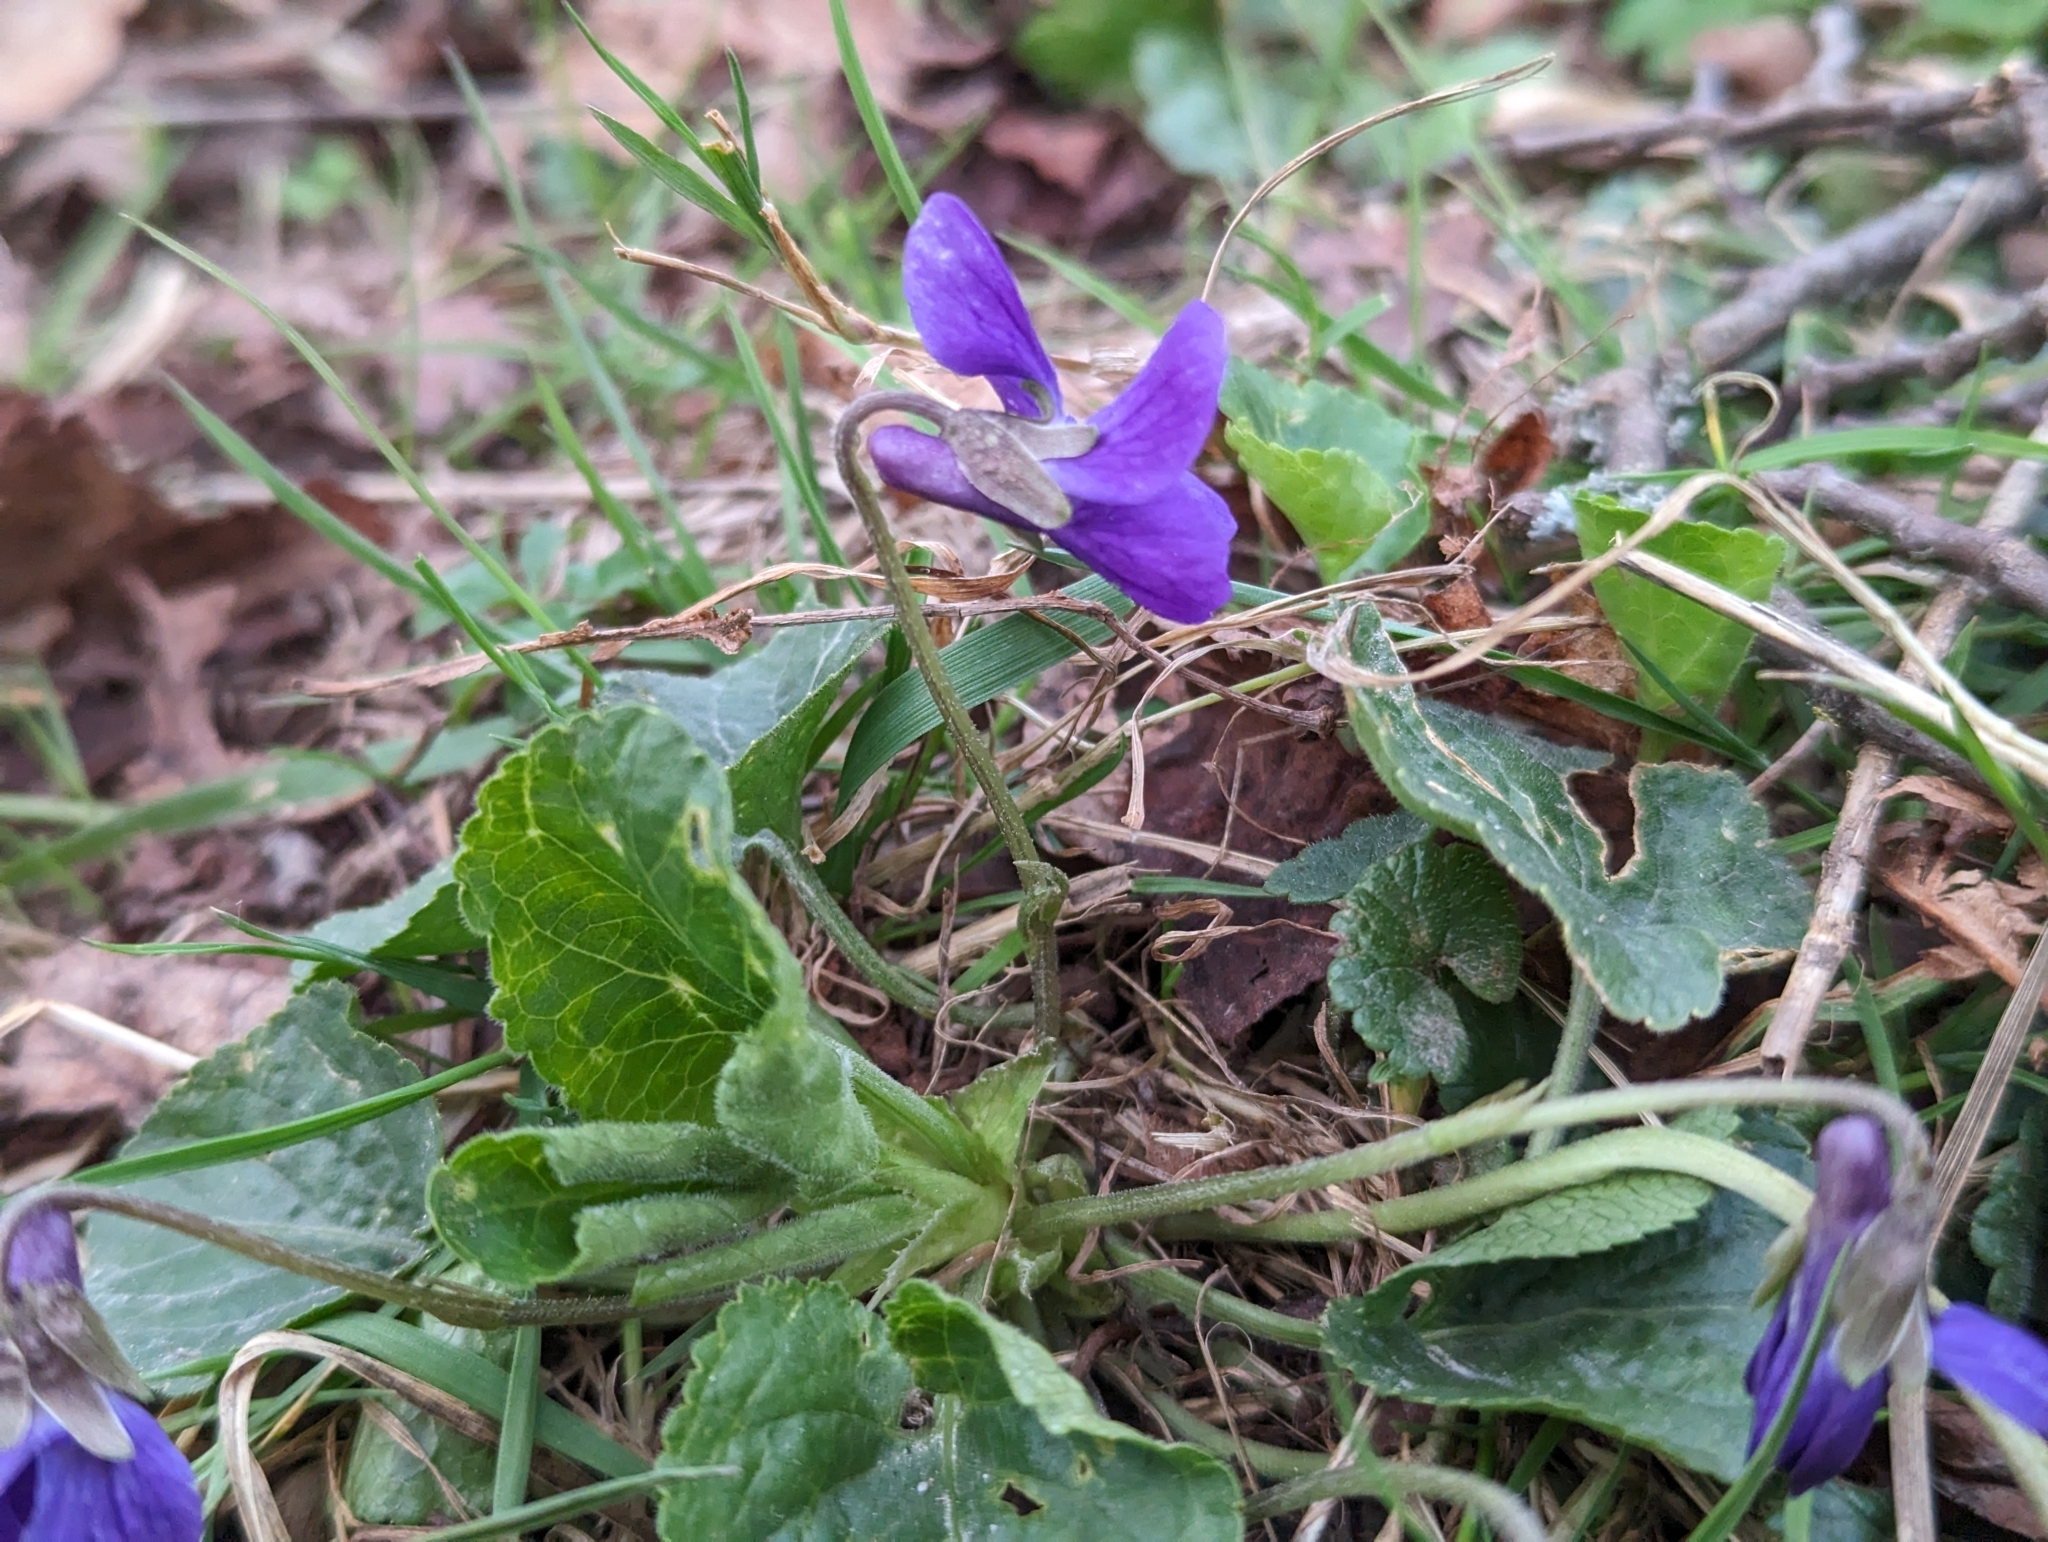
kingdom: Plantae
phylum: Tracheophyta
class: Magnoliopsida
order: Malpighiales
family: Violaceae
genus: Viola
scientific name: Viola odorata
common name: Sweet violet
